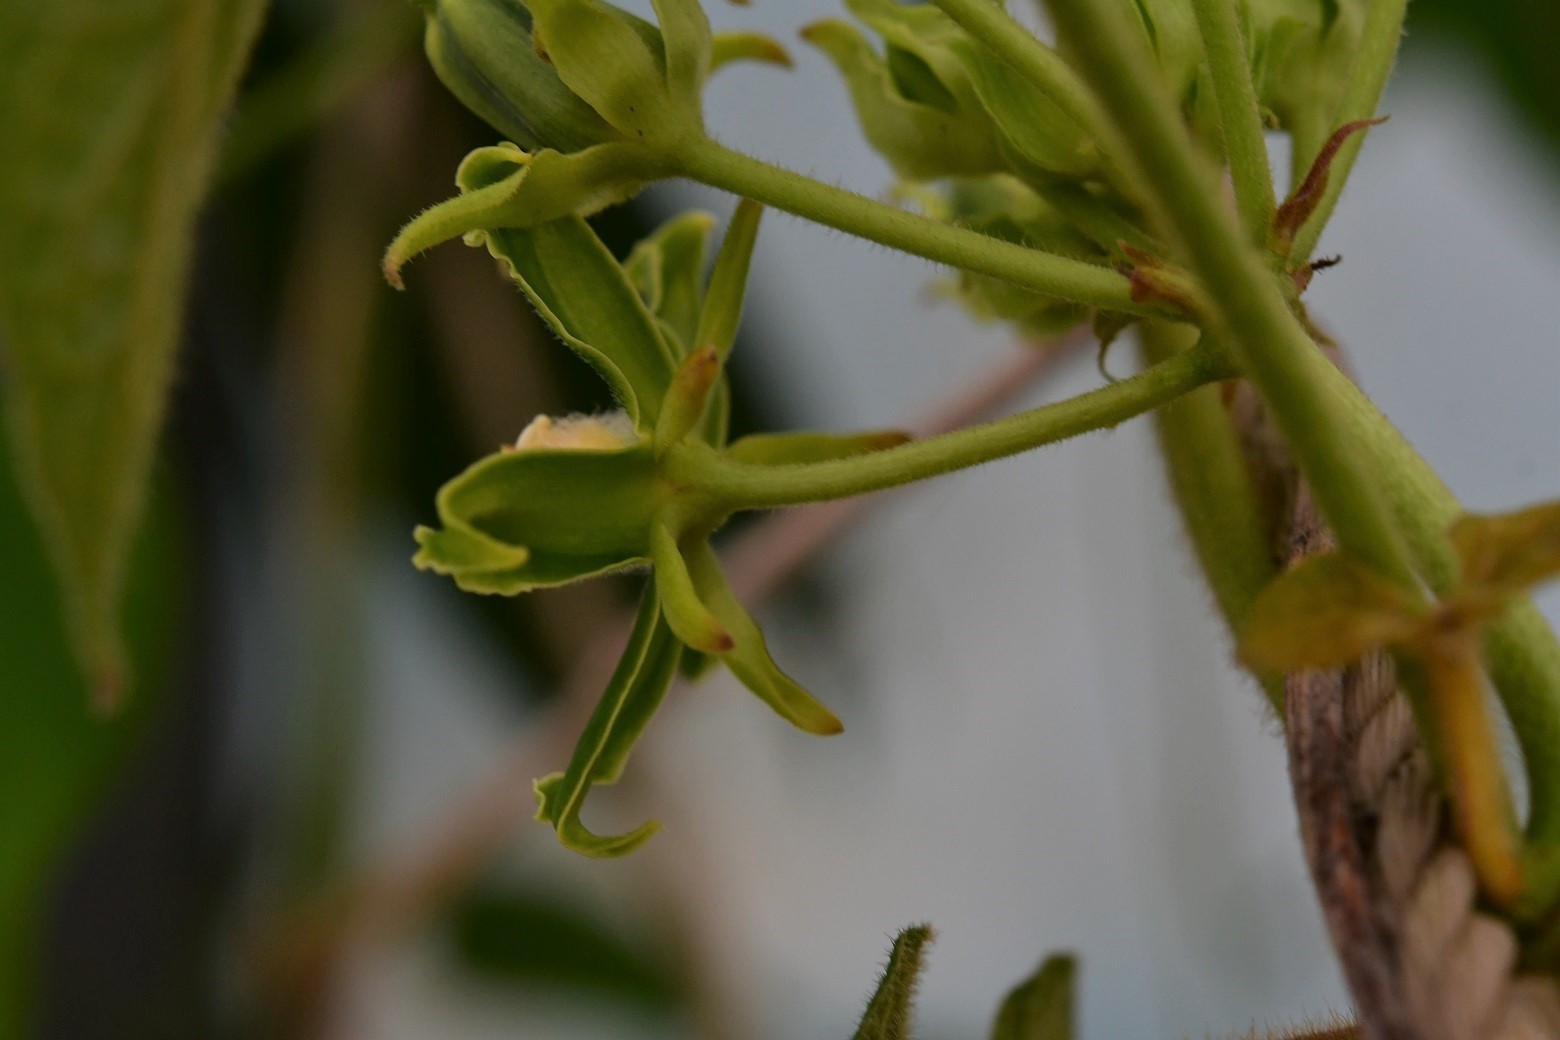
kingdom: Plantae
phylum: Tracheophyta
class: Magnoliopsida
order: Gentianales
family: Apocynaceae
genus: Gonolobus
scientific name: Gonolobus stenosepalus
